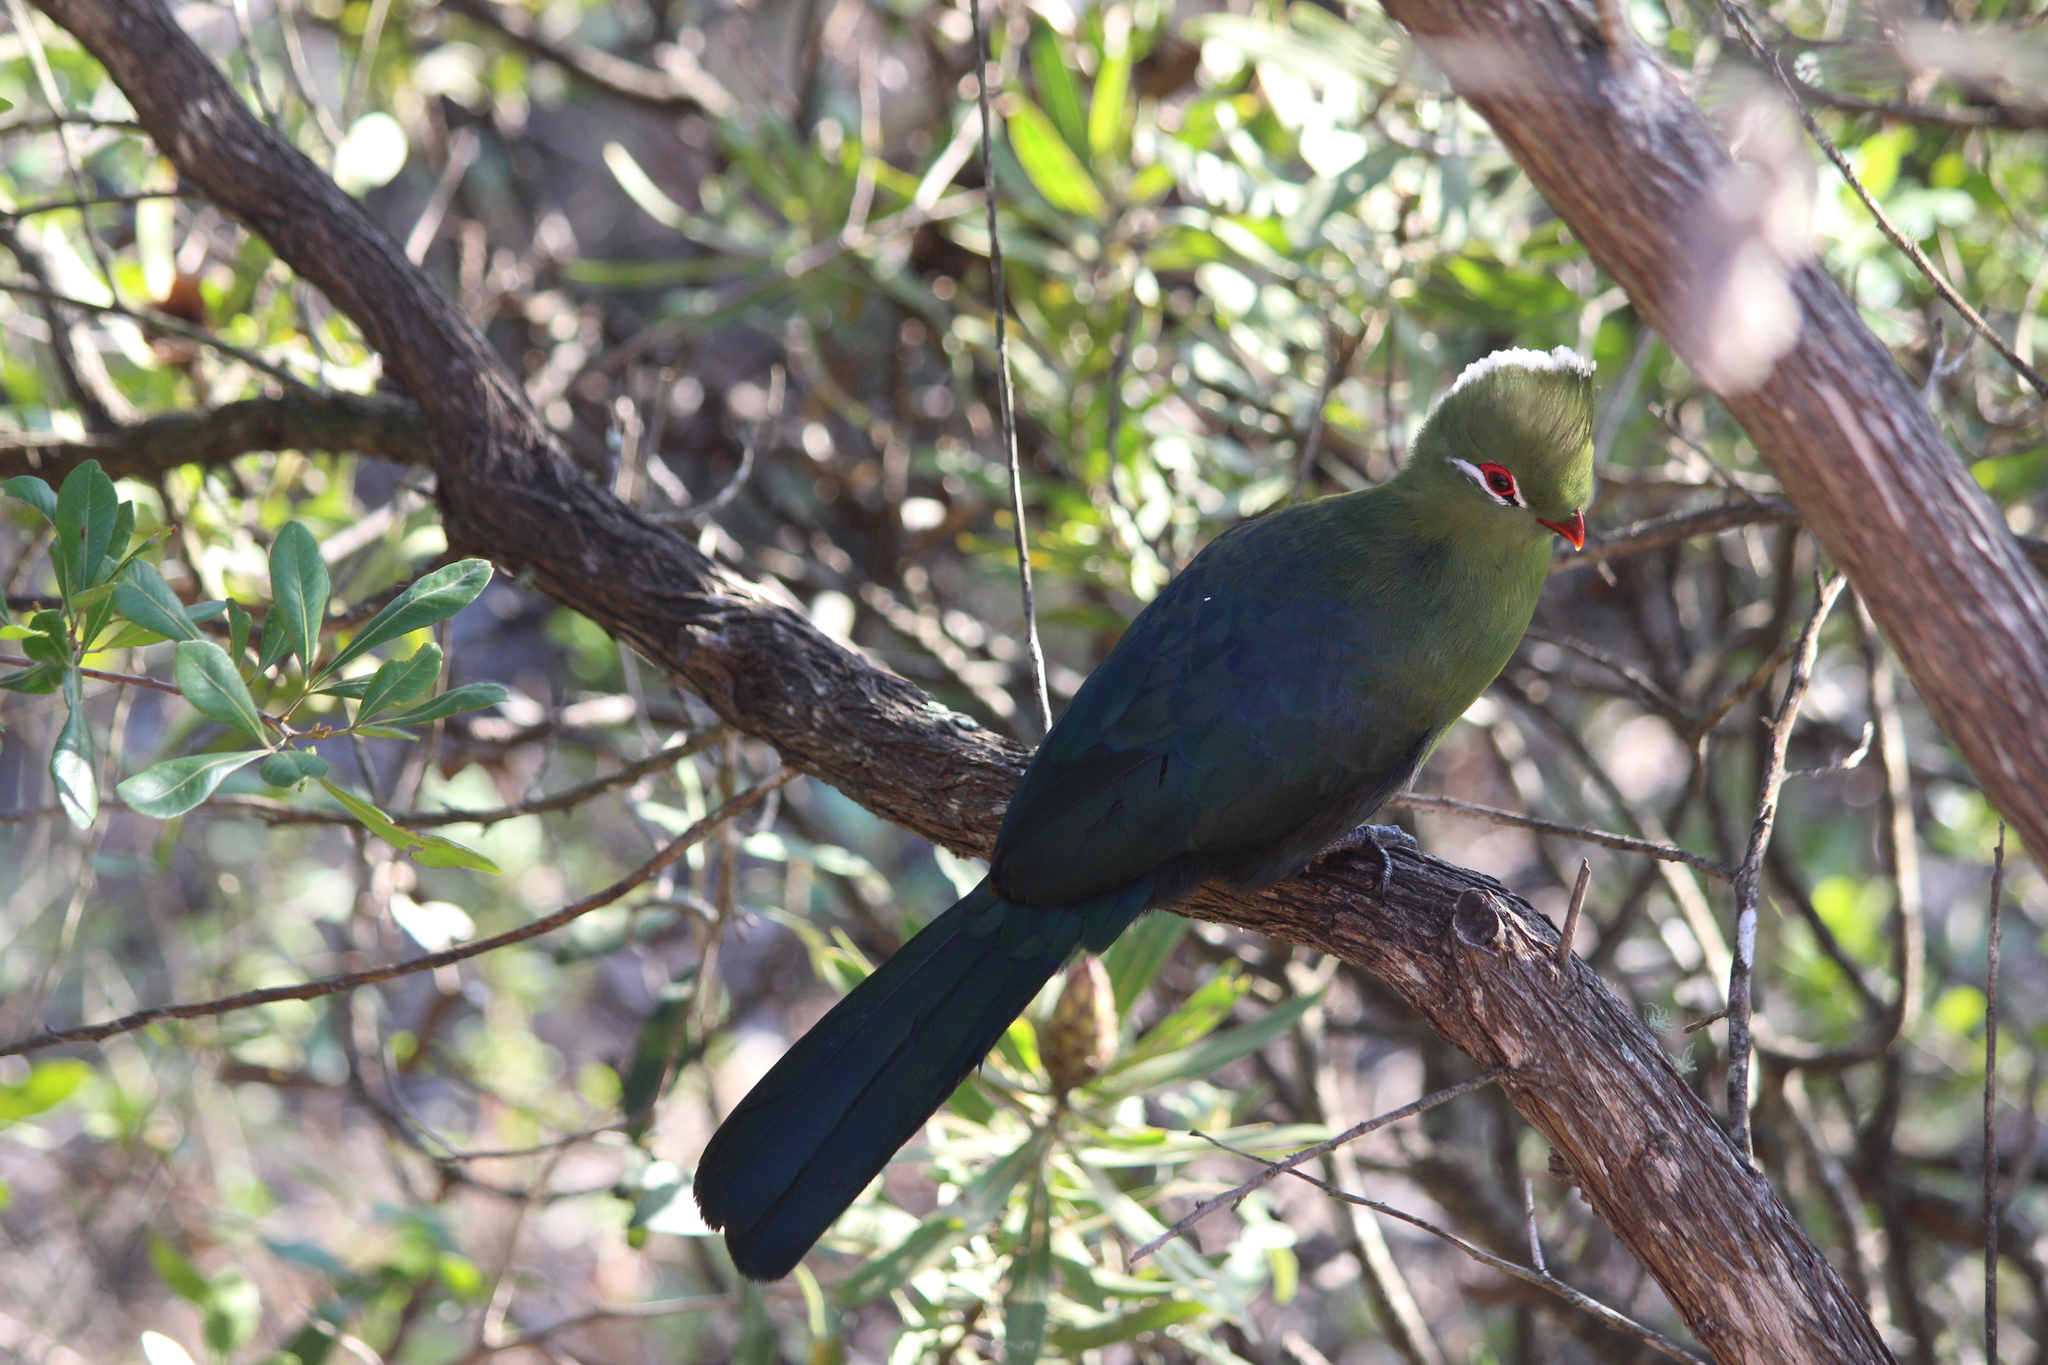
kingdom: Animalia
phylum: Chordata
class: Aves
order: Musophagiformes
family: Musophagidae
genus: Tauraco
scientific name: Tauraco corythaix
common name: Knysna turaco
